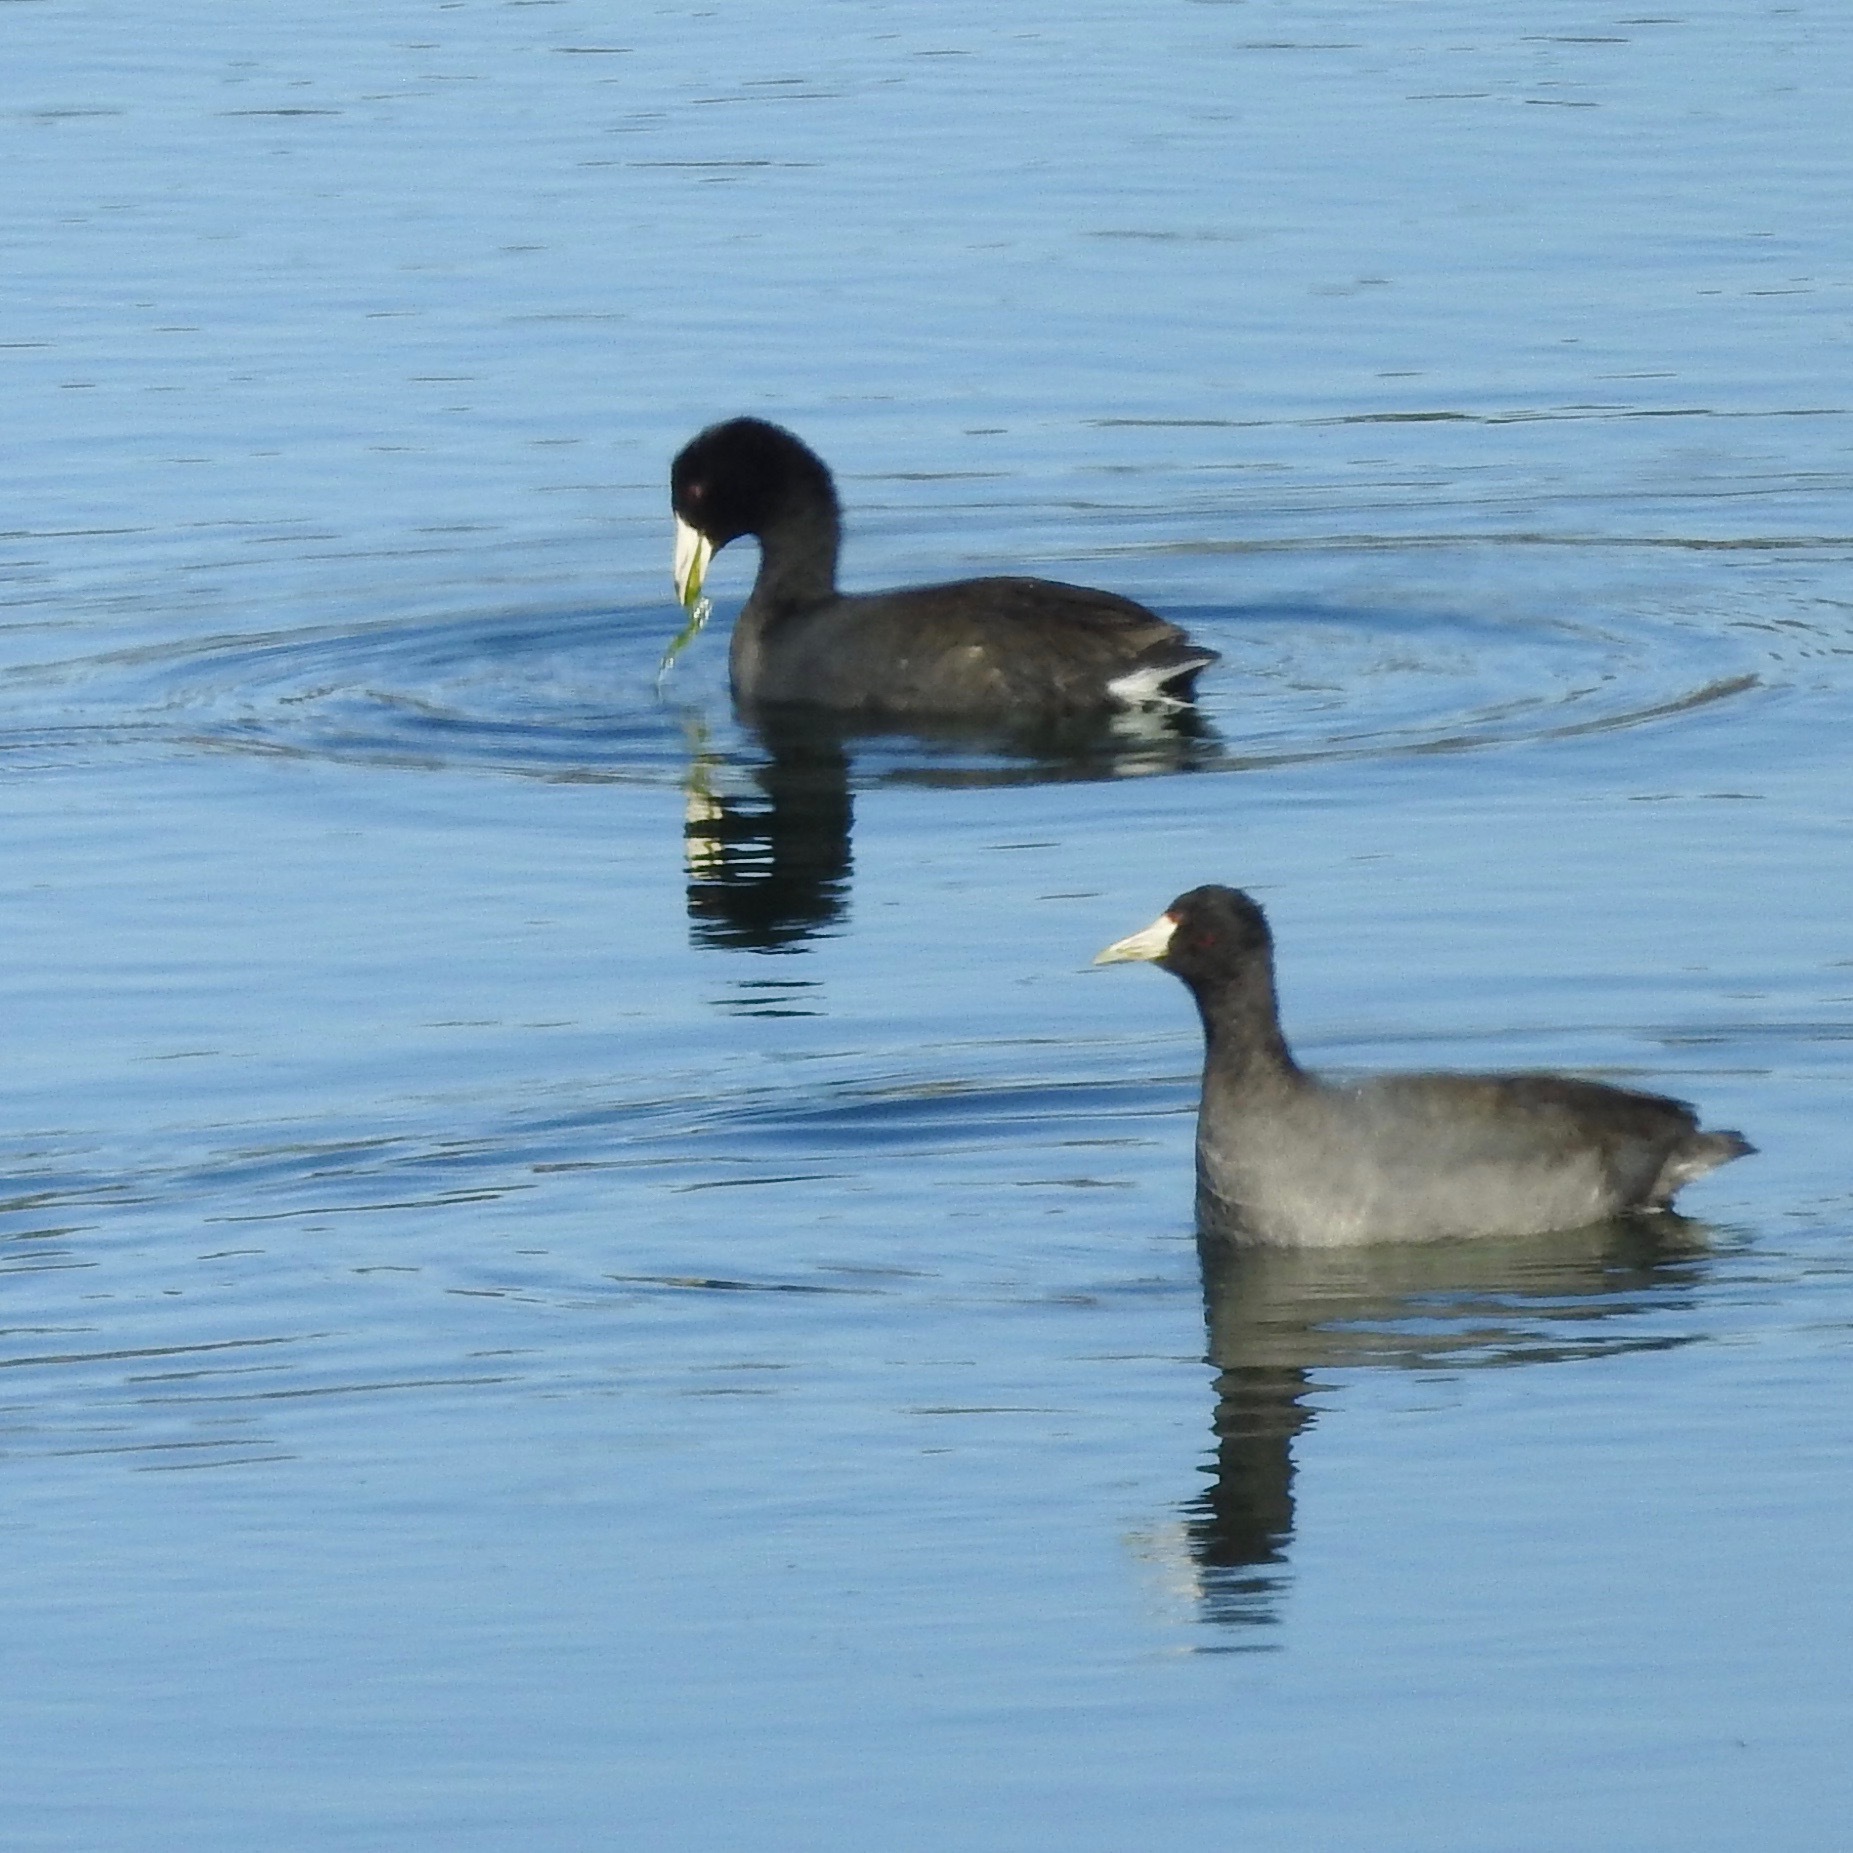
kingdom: Animalia
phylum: Chordata
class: Aves
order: Gruiformes
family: Rallidae
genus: Fulica
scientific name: Fulica americana
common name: American coot
